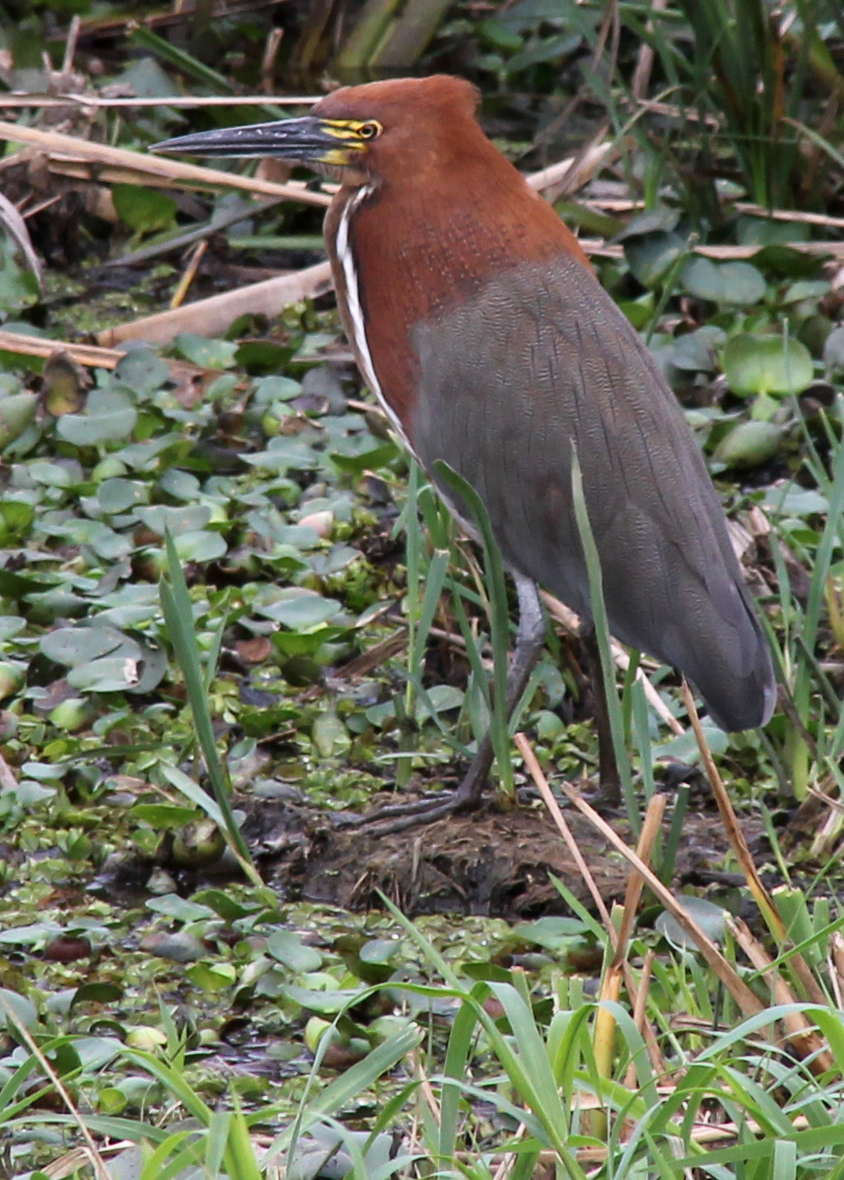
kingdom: Animalia
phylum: Chordata
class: Aves
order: Pelecaniformes
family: Ardeidae
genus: Tigrisoma
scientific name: Tigrisoma lineatum
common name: Rufescent tiger-heron
